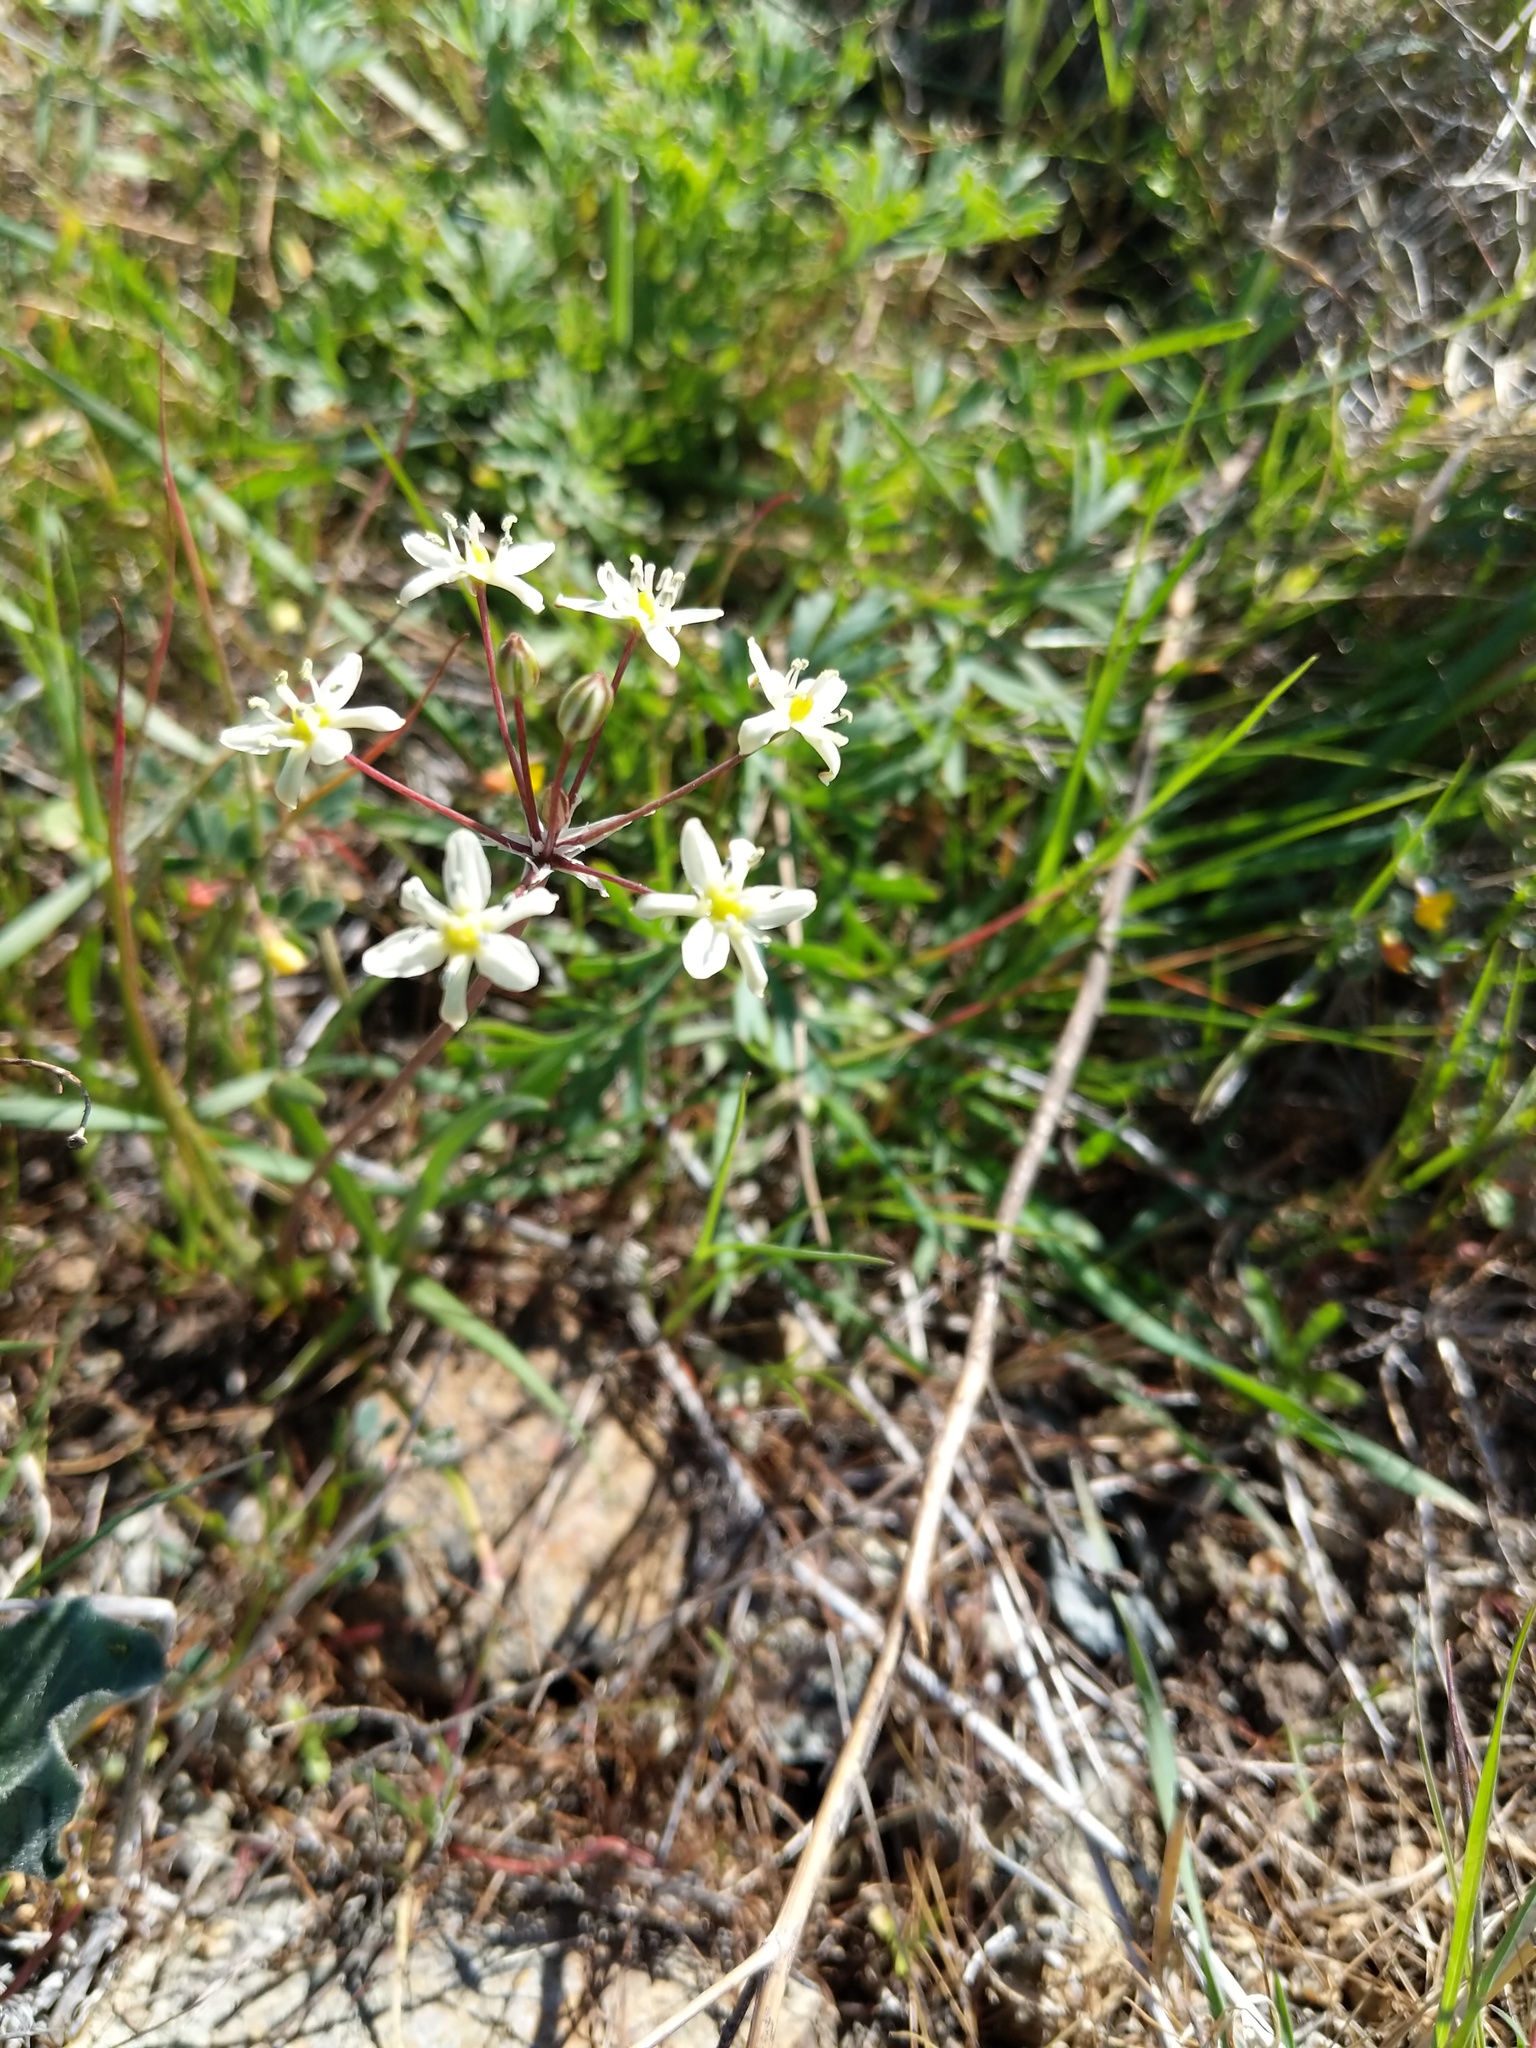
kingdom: Plantae
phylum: Tracheophyta
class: Liliopsida
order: Asparagales
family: Asparagaceae
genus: Muilla
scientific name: Muilla maritima
